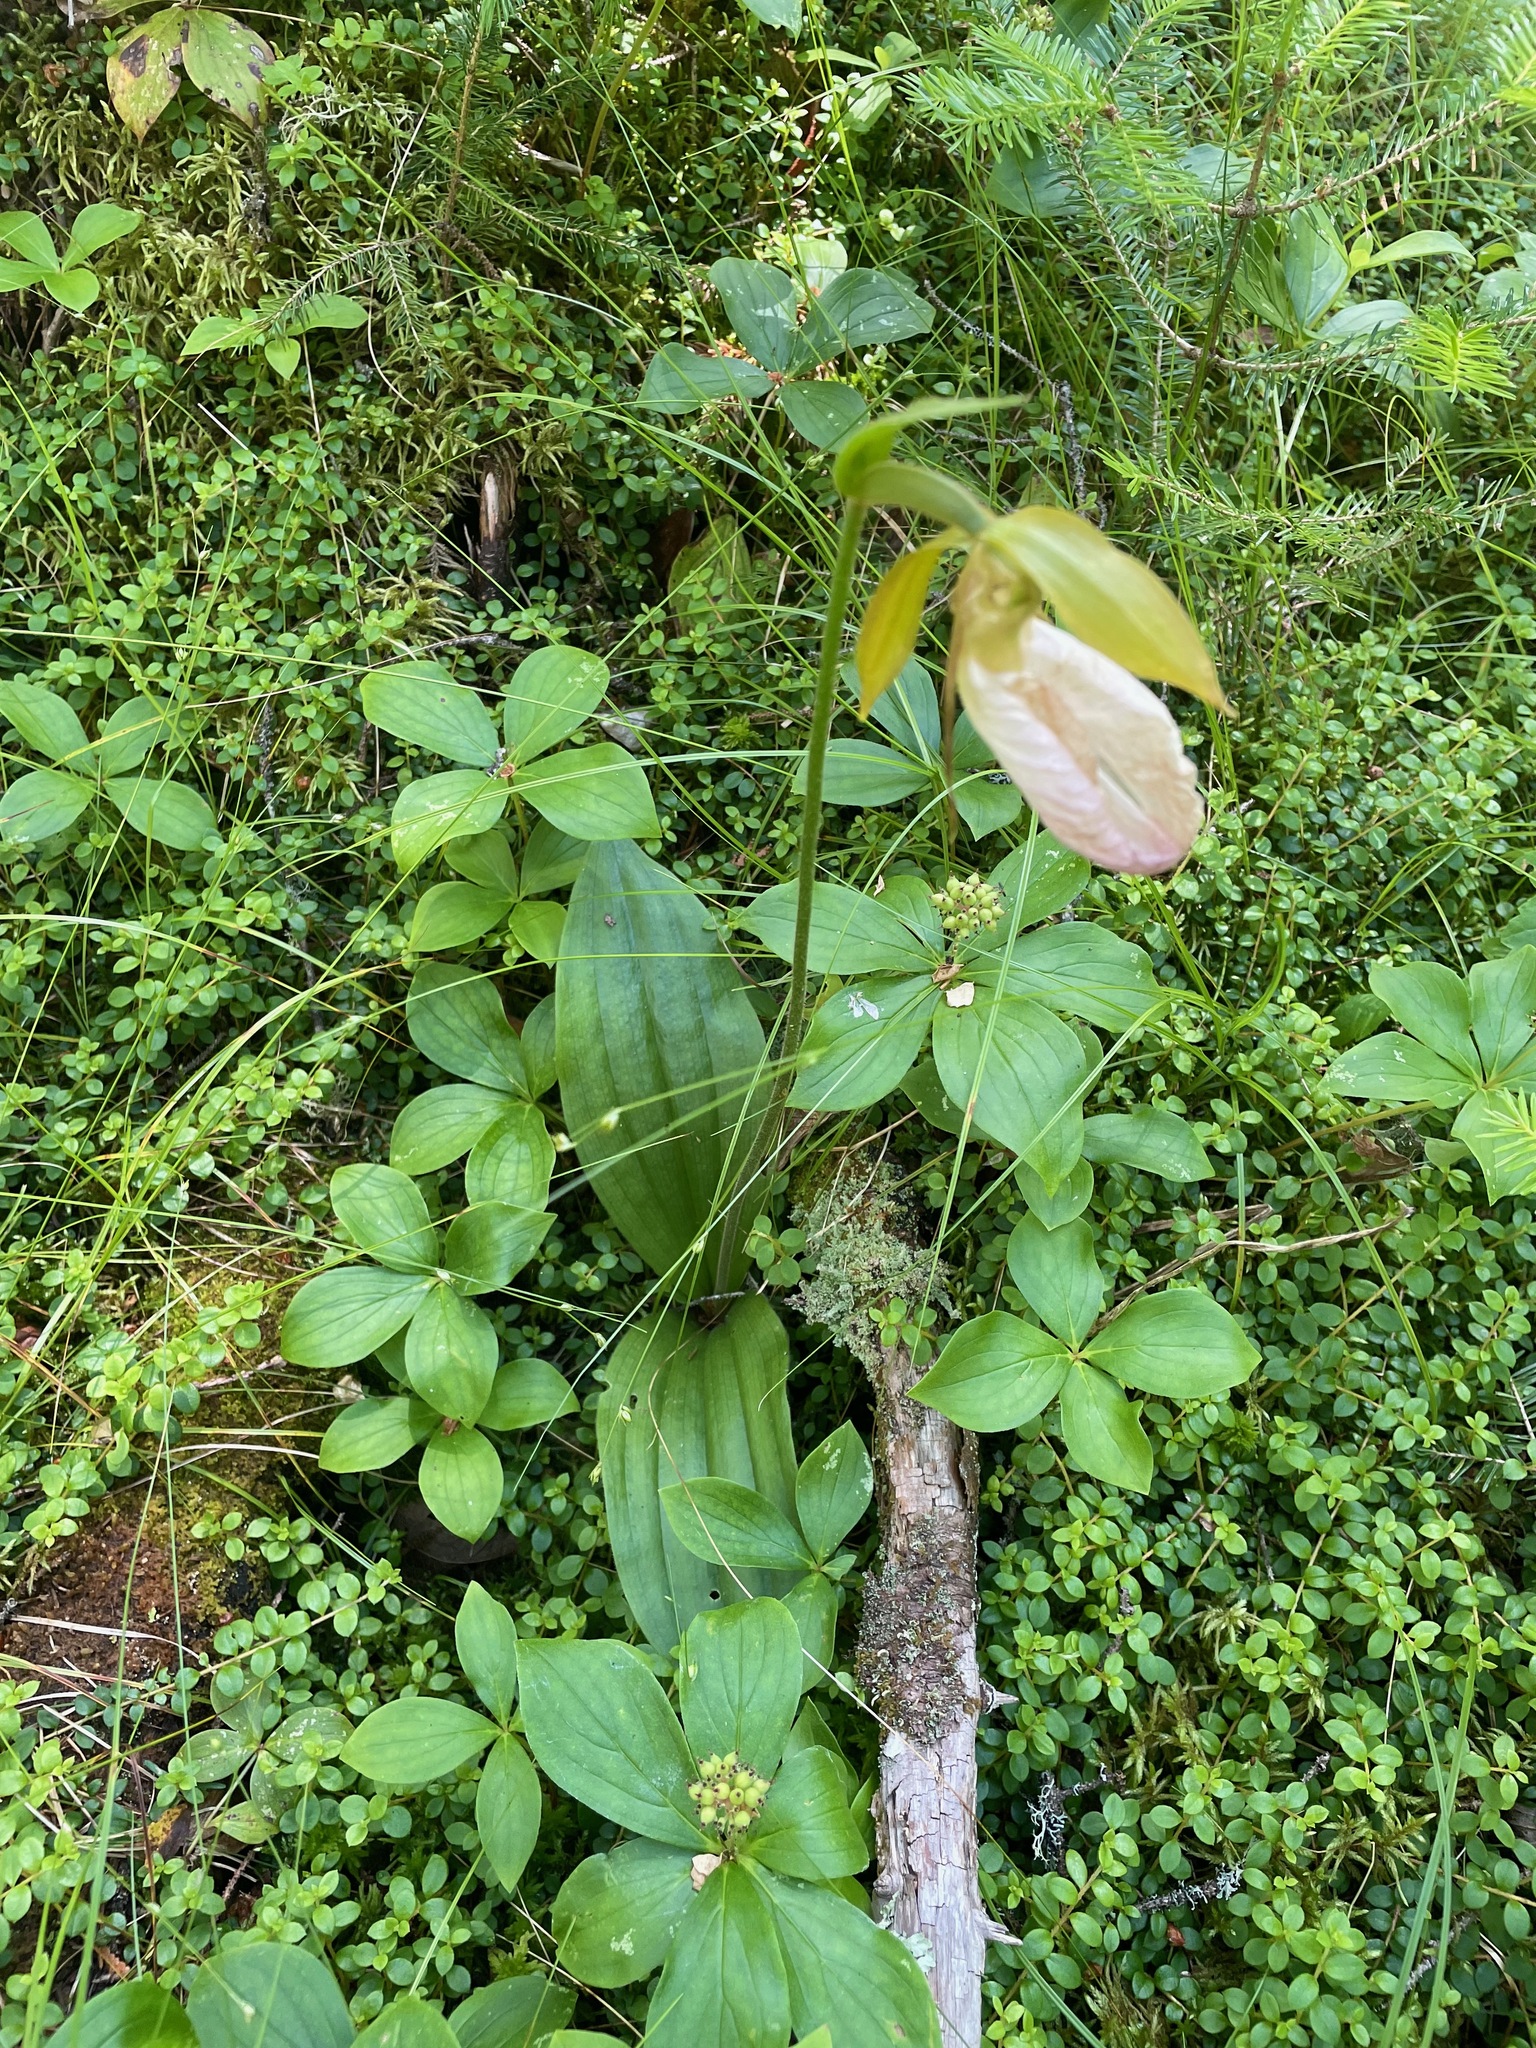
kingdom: Plantae
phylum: Tracheophyta
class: Liliopsida
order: Asparagales
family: Orchidaceae
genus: Cypripedium
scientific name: Cypripedium acaule
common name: Pink lady's-slipper
